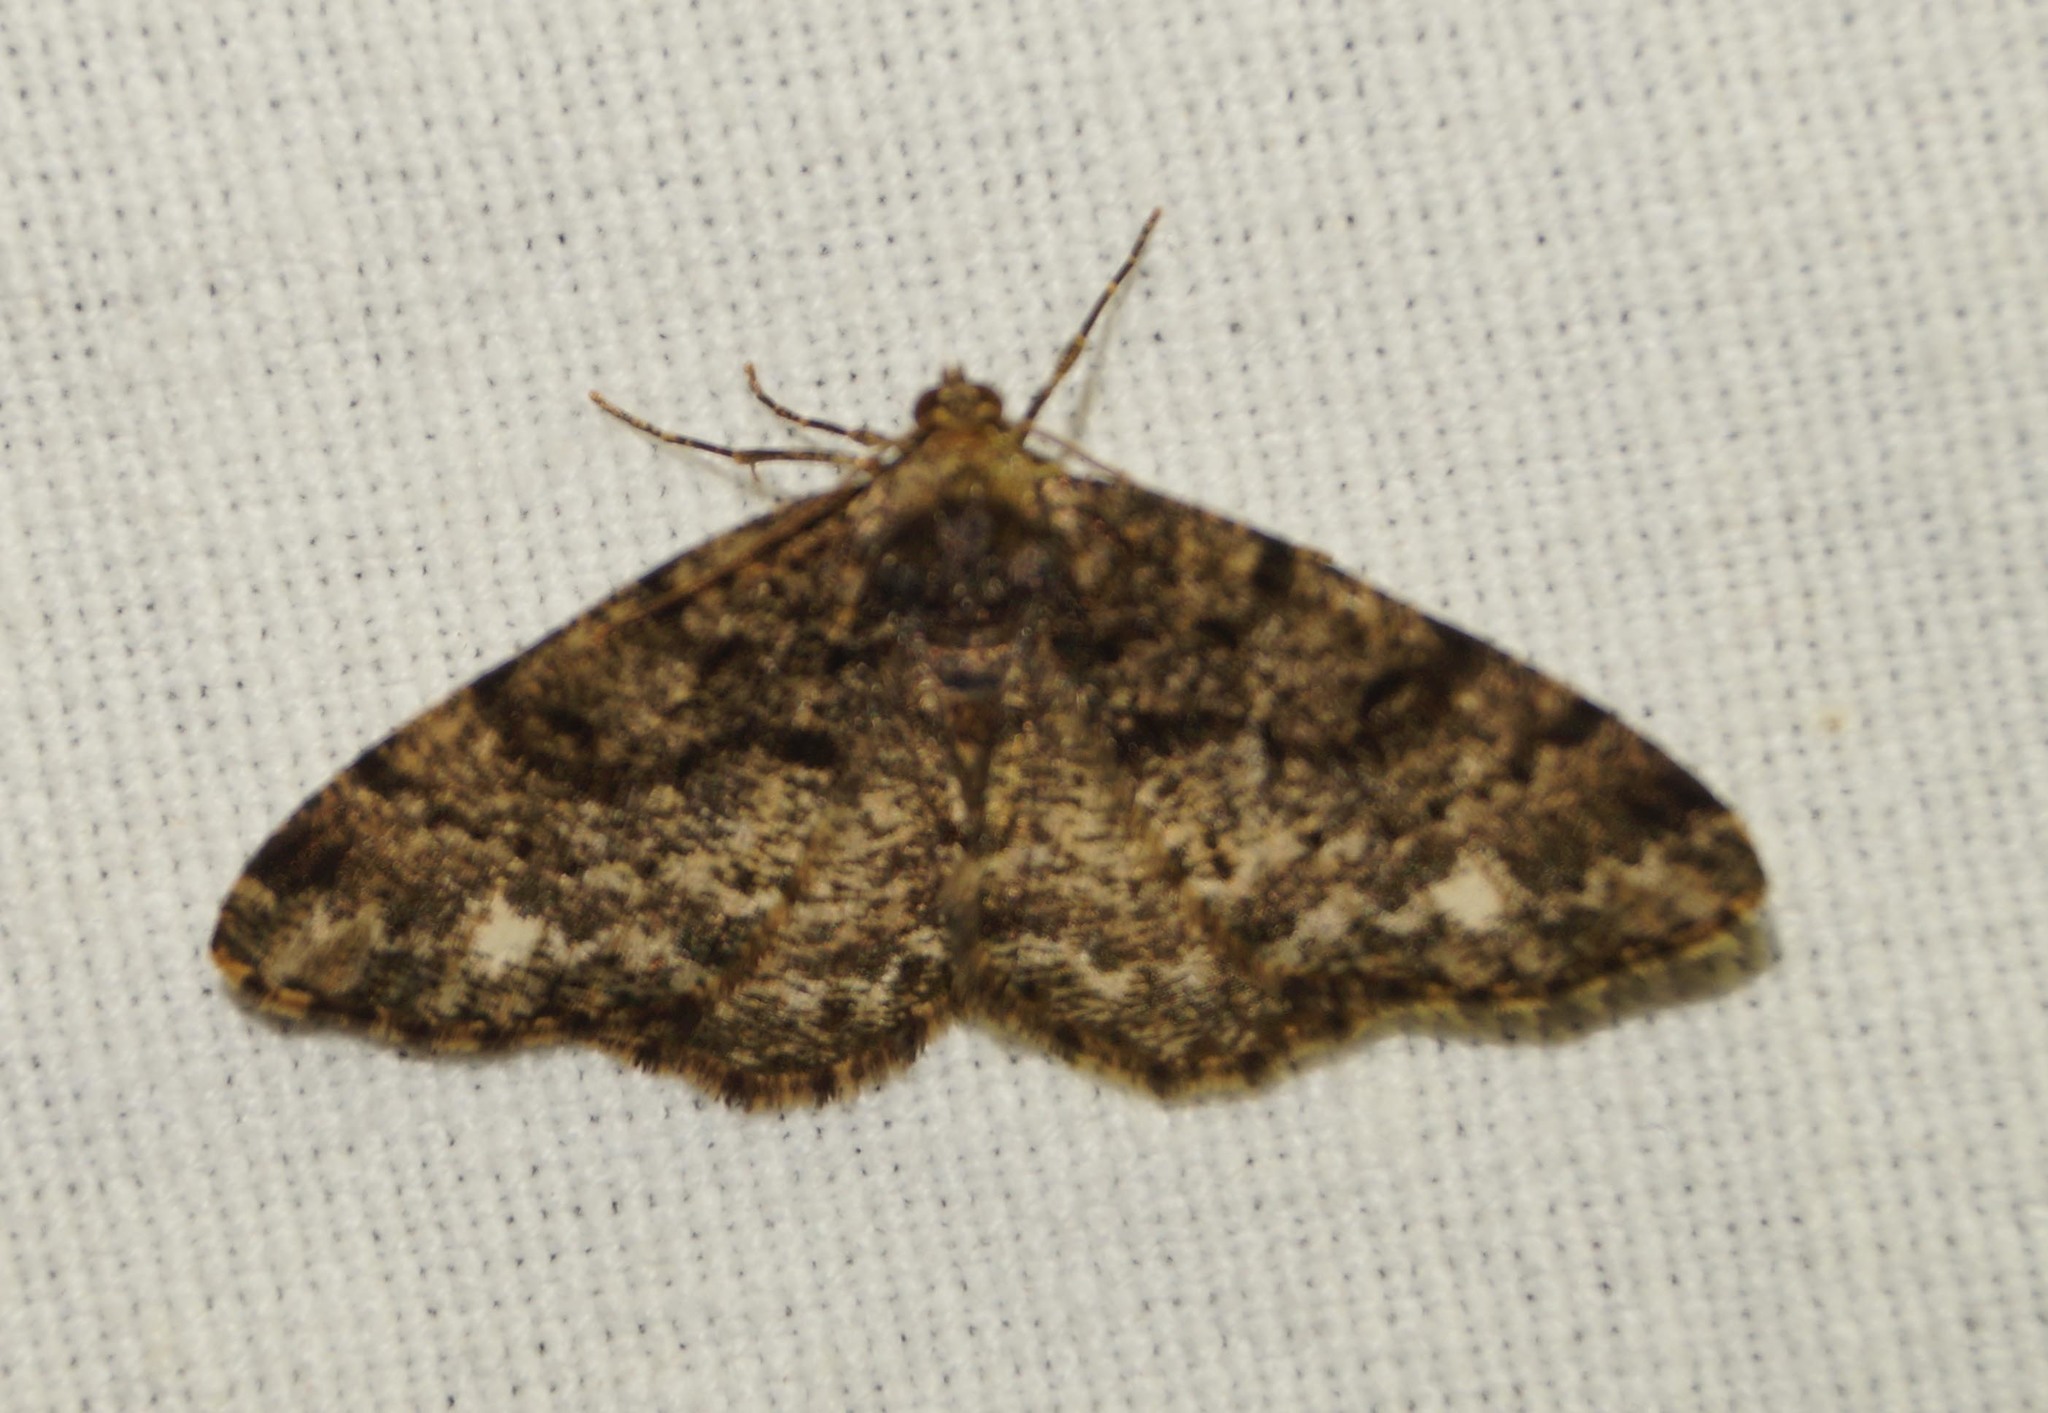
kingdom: Animalia
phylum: Arthropoda
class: Insecta
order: Lepidoptera
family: Geometridae
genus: Parectropis
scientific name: Parectropis similaria
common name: Brindled white-spot
